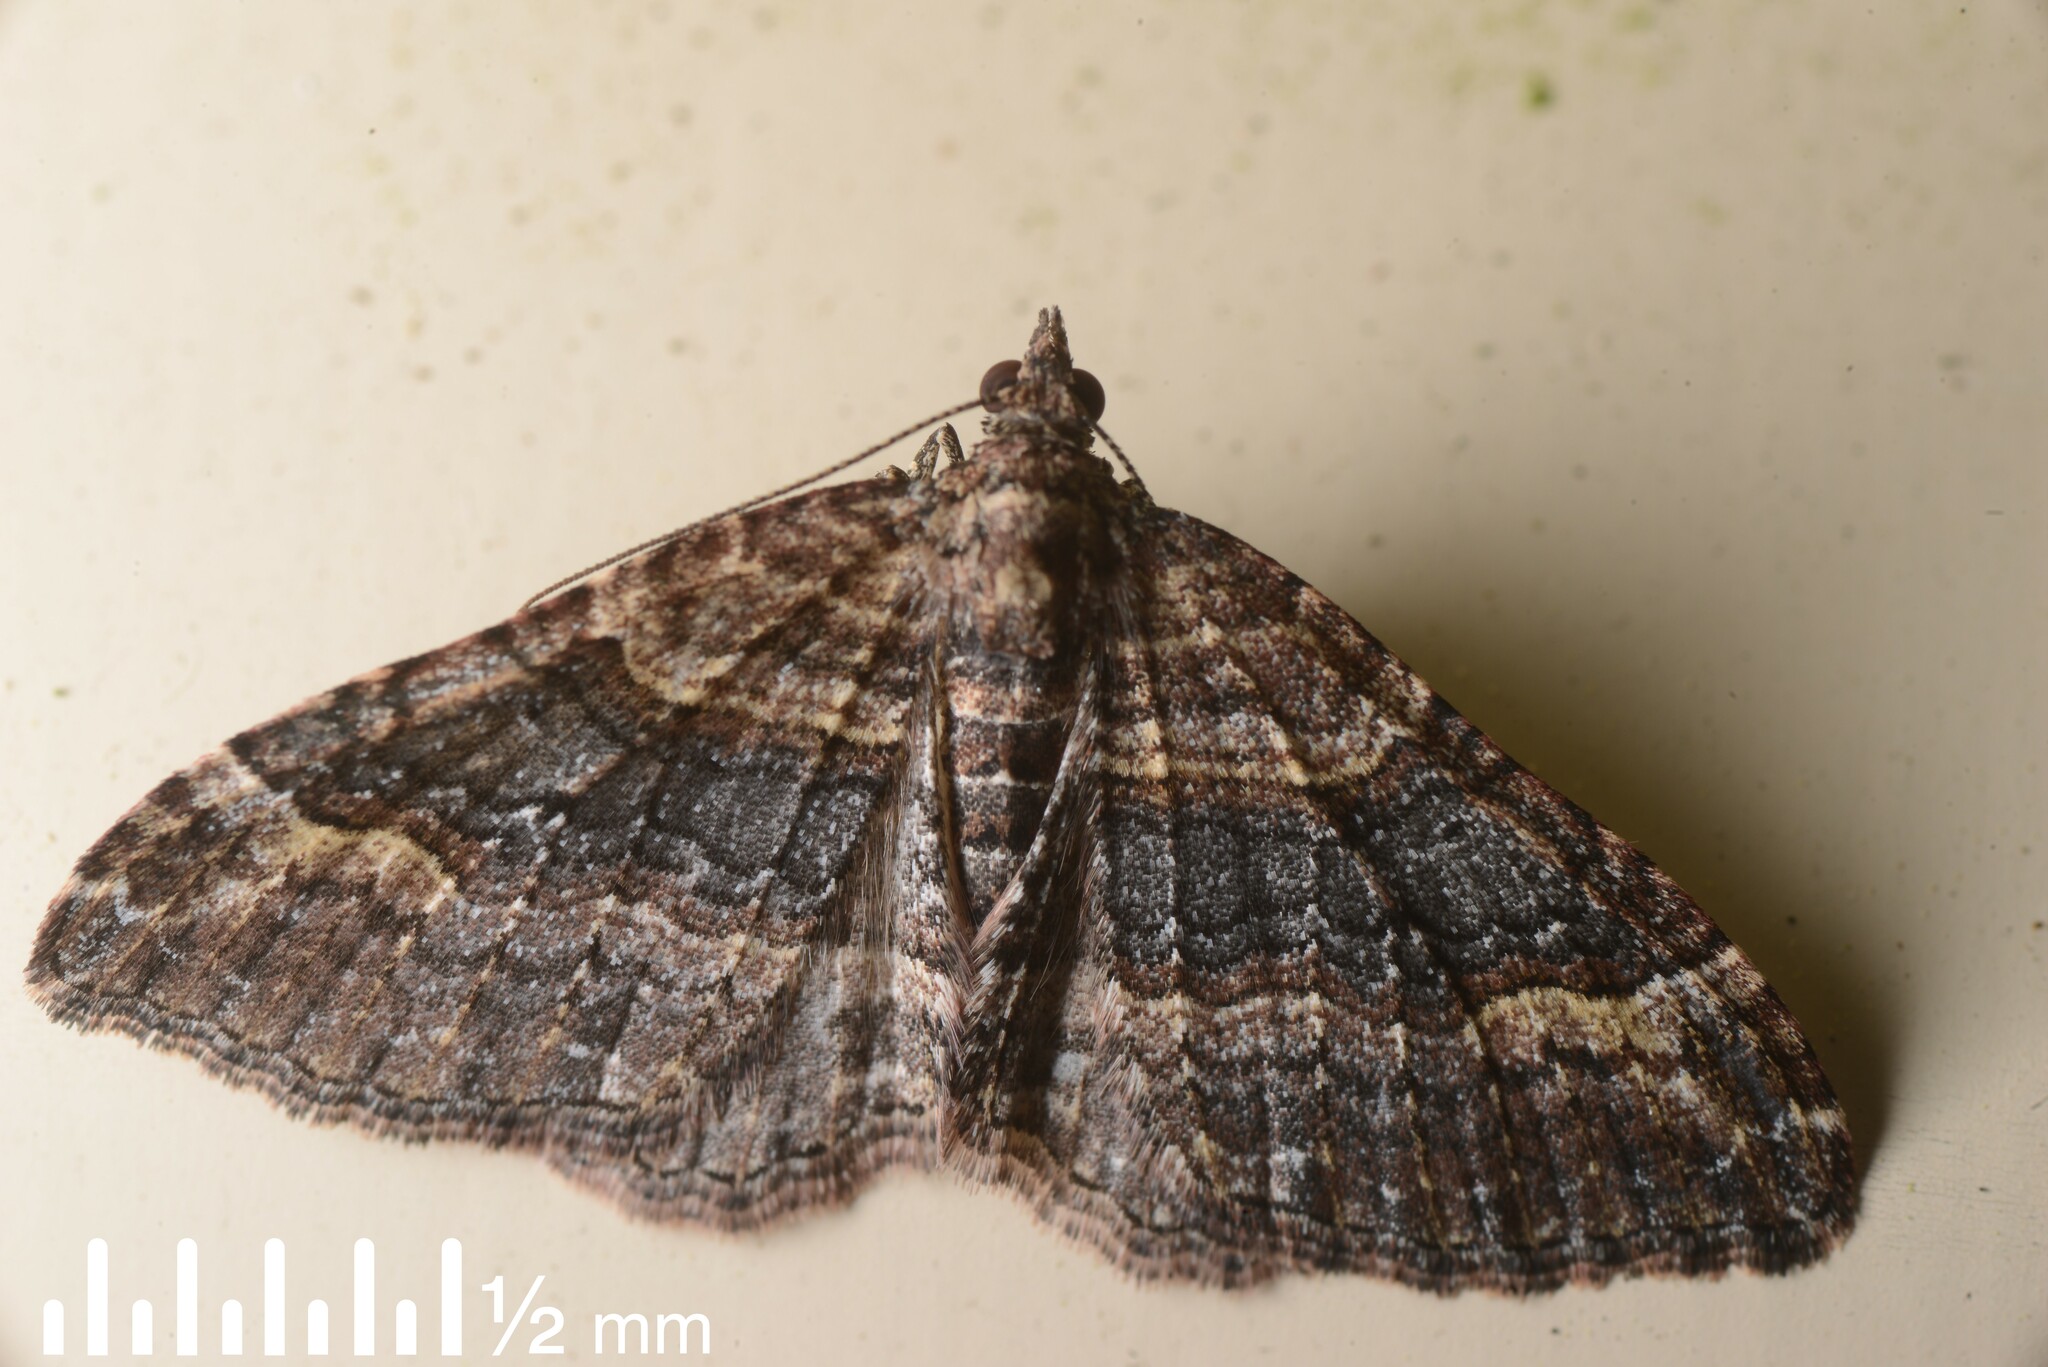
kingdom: Animalia
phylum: Arthropoda
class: Insecta
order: Lepidoptera
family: Geometridae
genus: Epyaxa
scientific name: Epyaxa lucidata
